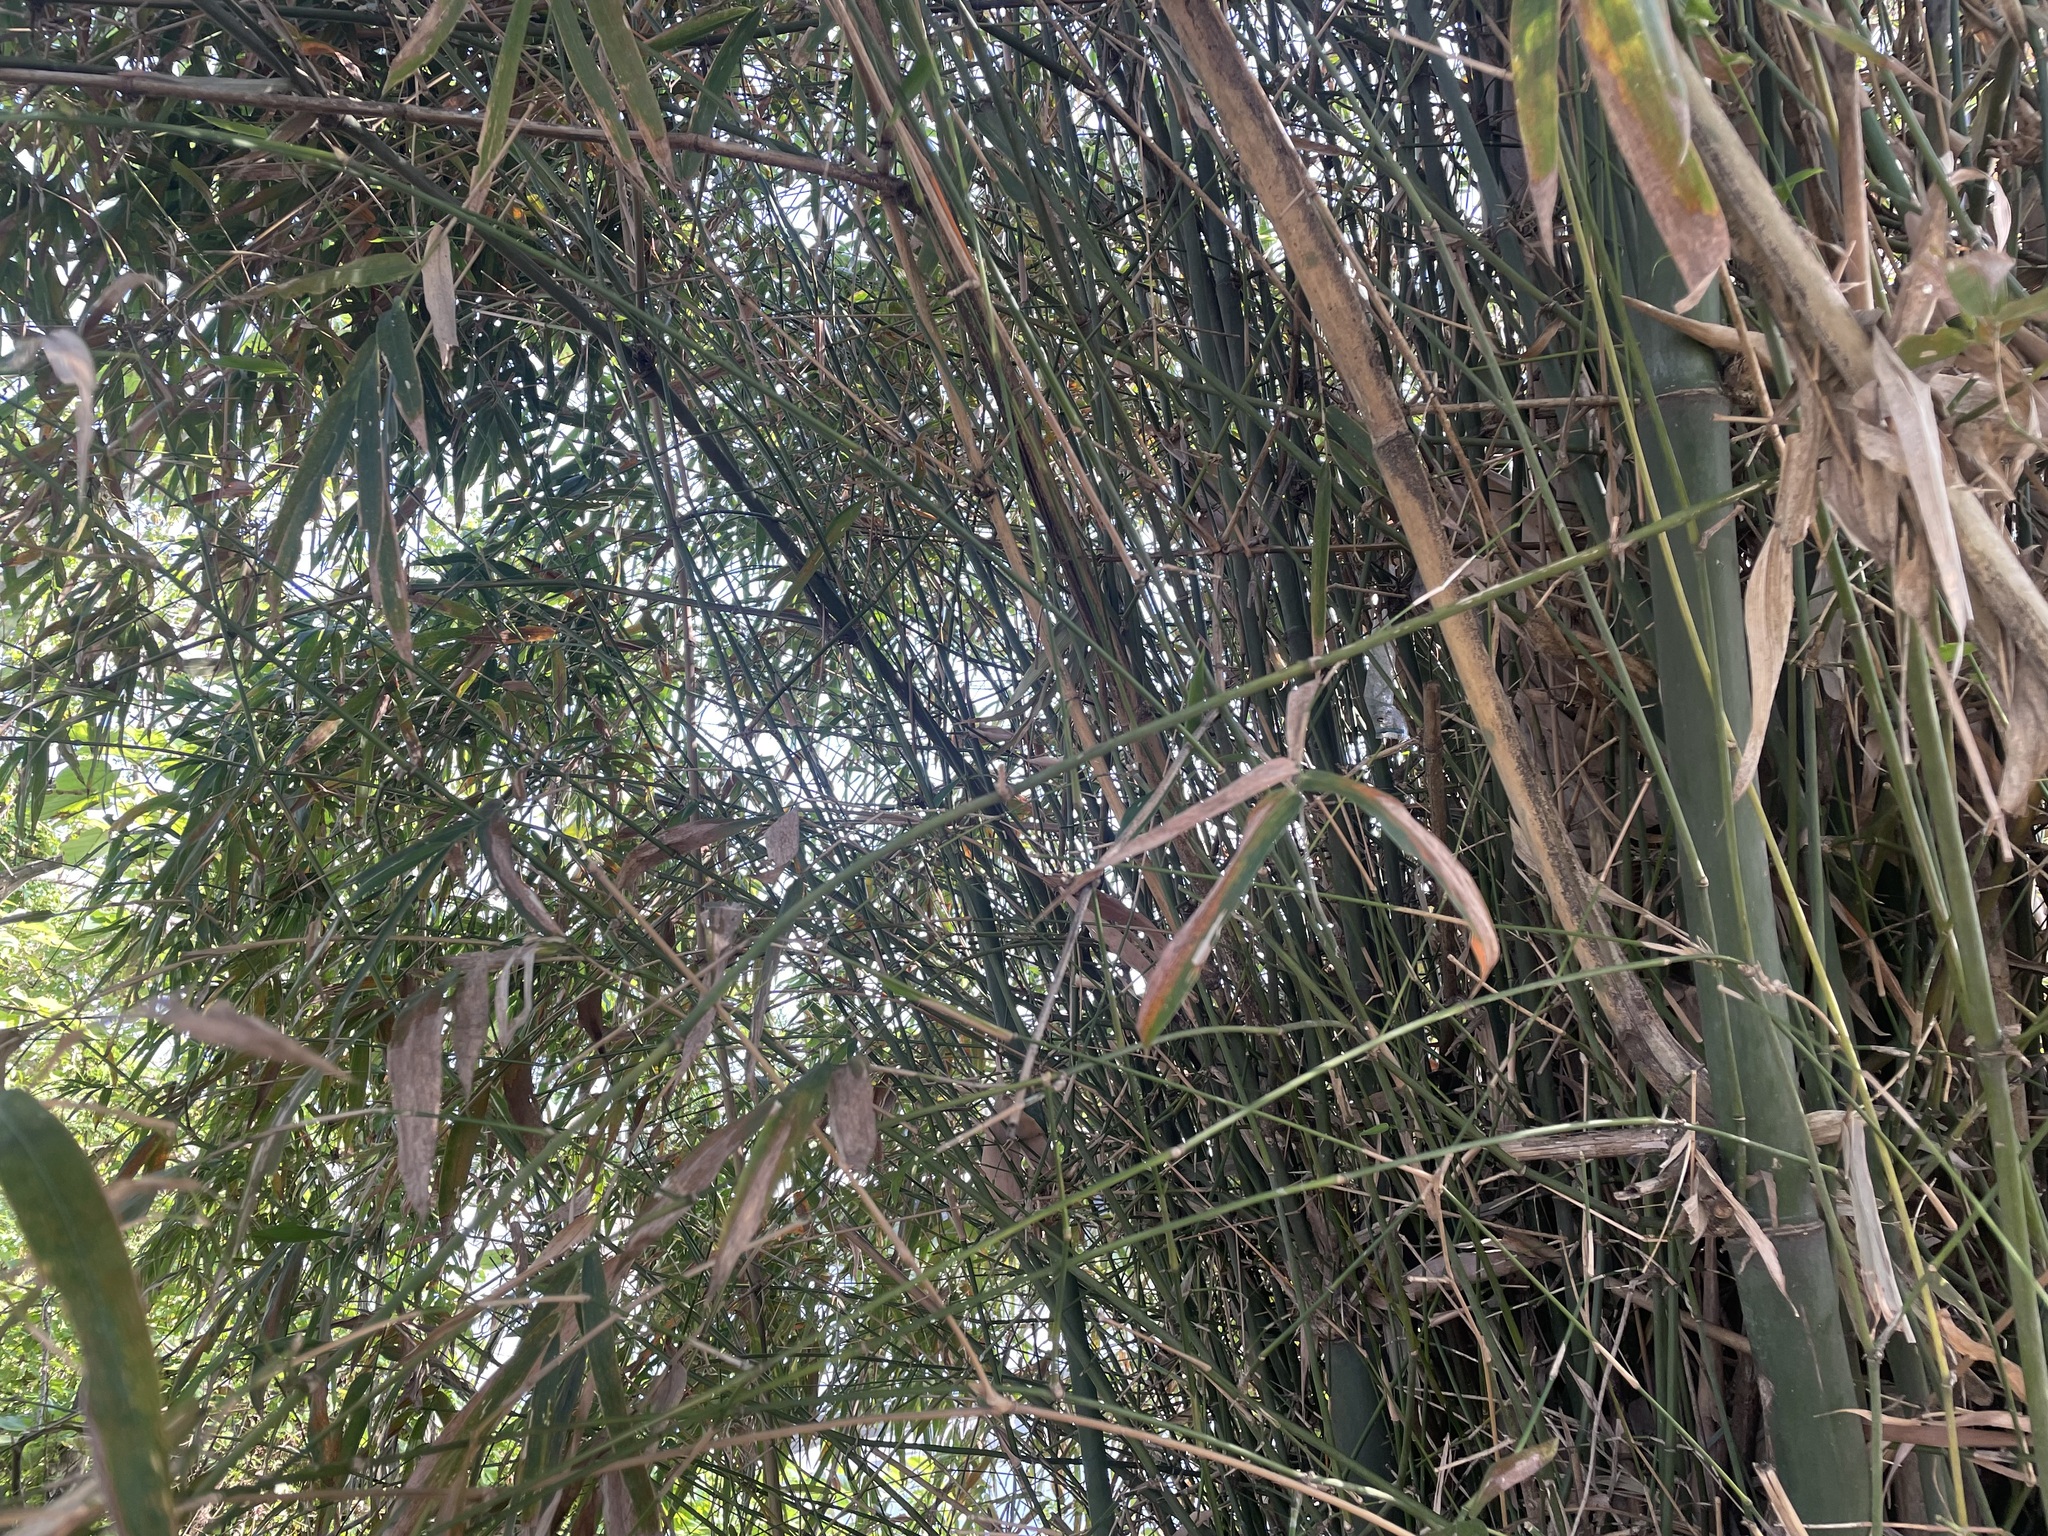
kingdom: Plantae
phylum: Tracheophyta
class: Liliopsida
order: Poales
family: Poaceae
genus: Bambusa
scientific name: Bambusa spinosa
